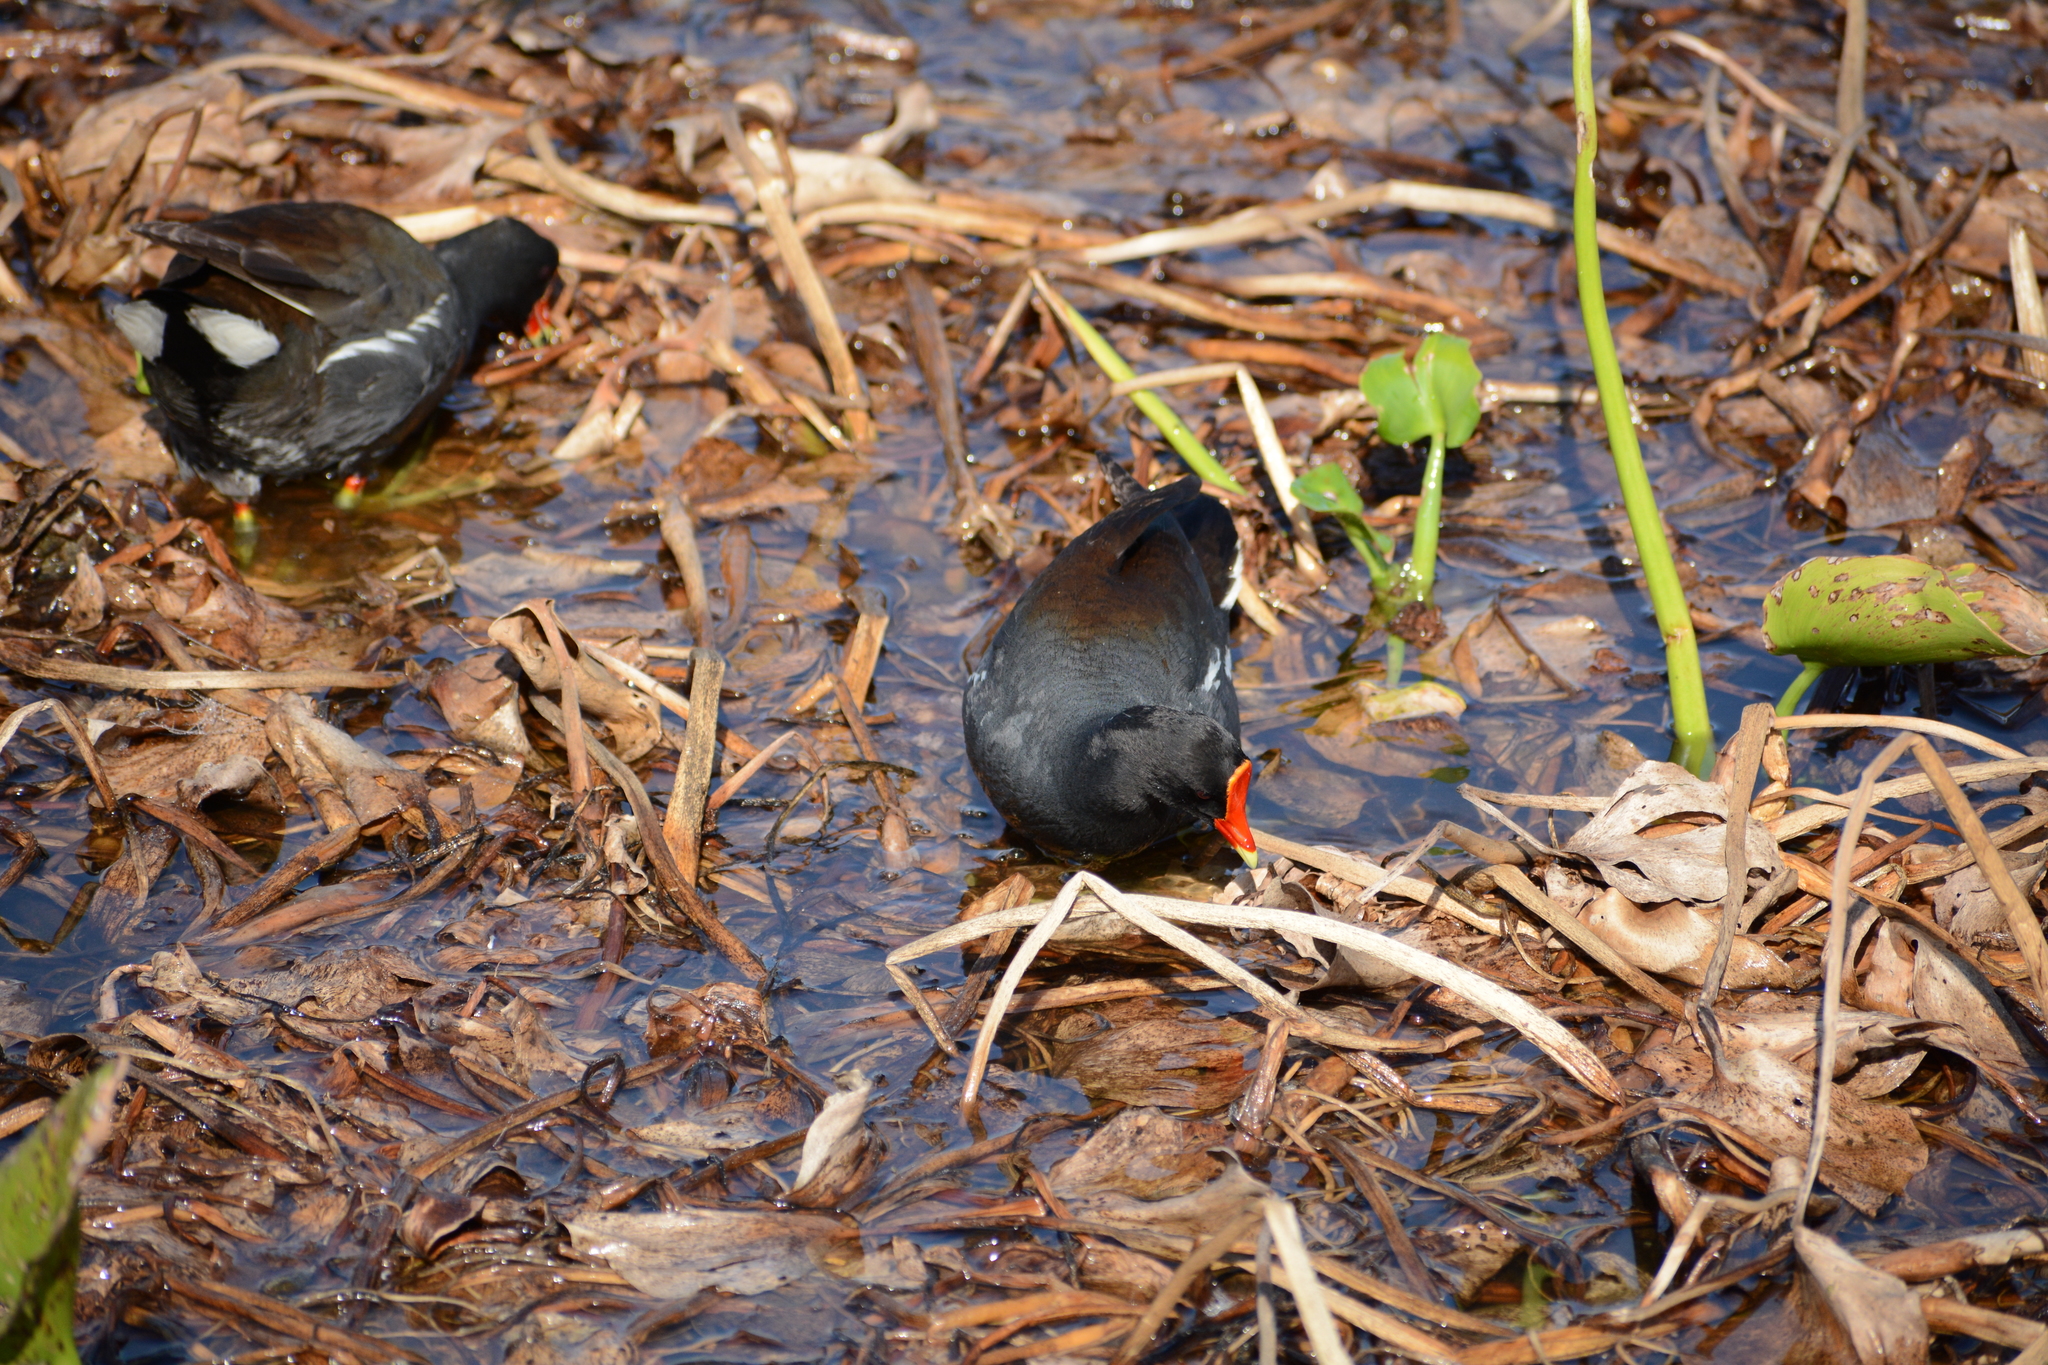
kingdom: Animalia
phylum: Chordata
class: Aves
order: Gruiformes
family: Rallidae
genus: Gallinula
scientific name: Gallinula chloropus
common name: Common moorhen
